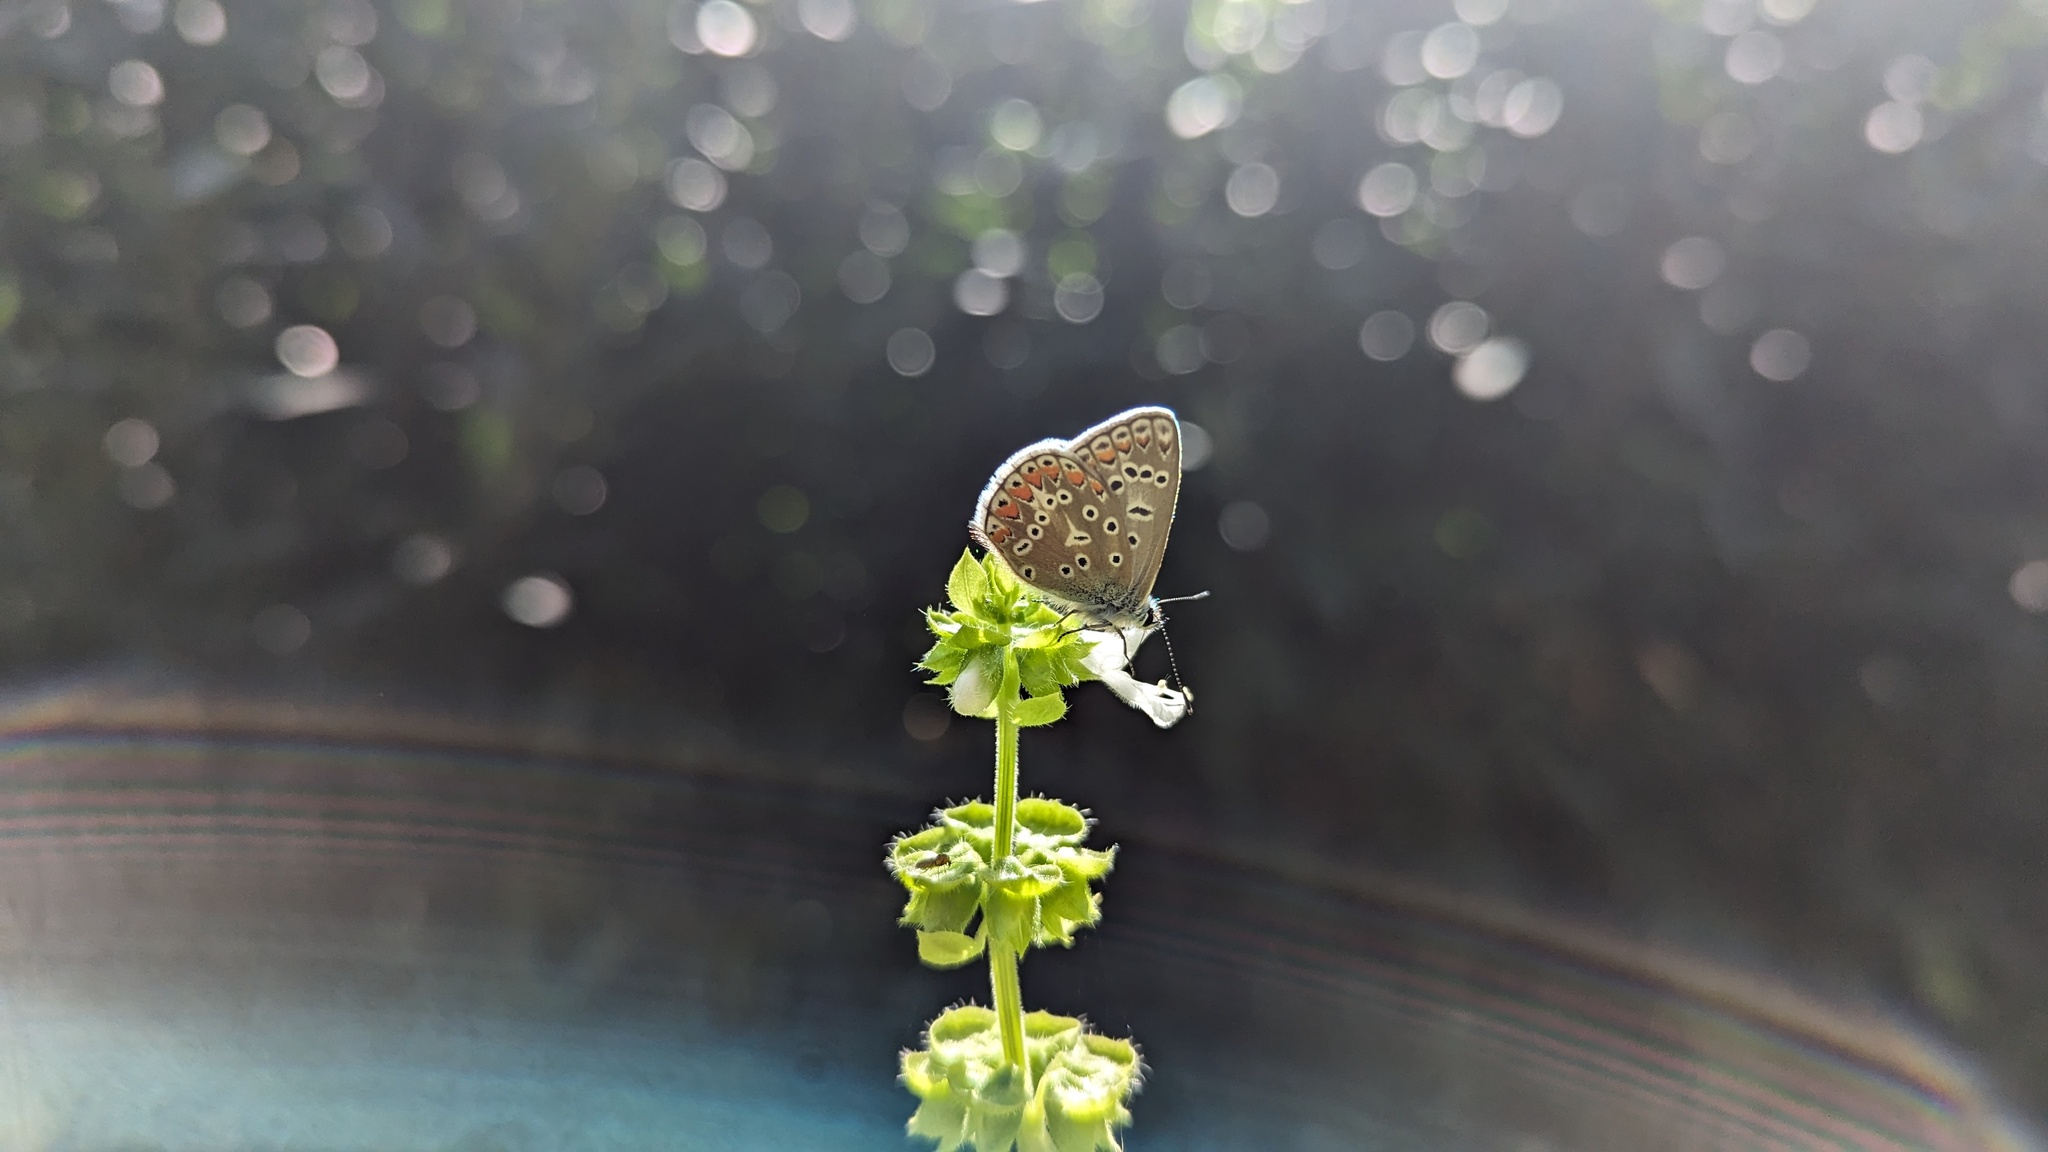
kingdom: Animalia
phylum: Arthropoda
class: Insecta
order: Lepidoptera
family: Lycaenidae
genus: Polyommatus
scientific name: Polyommatus icarus
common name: Common blue
